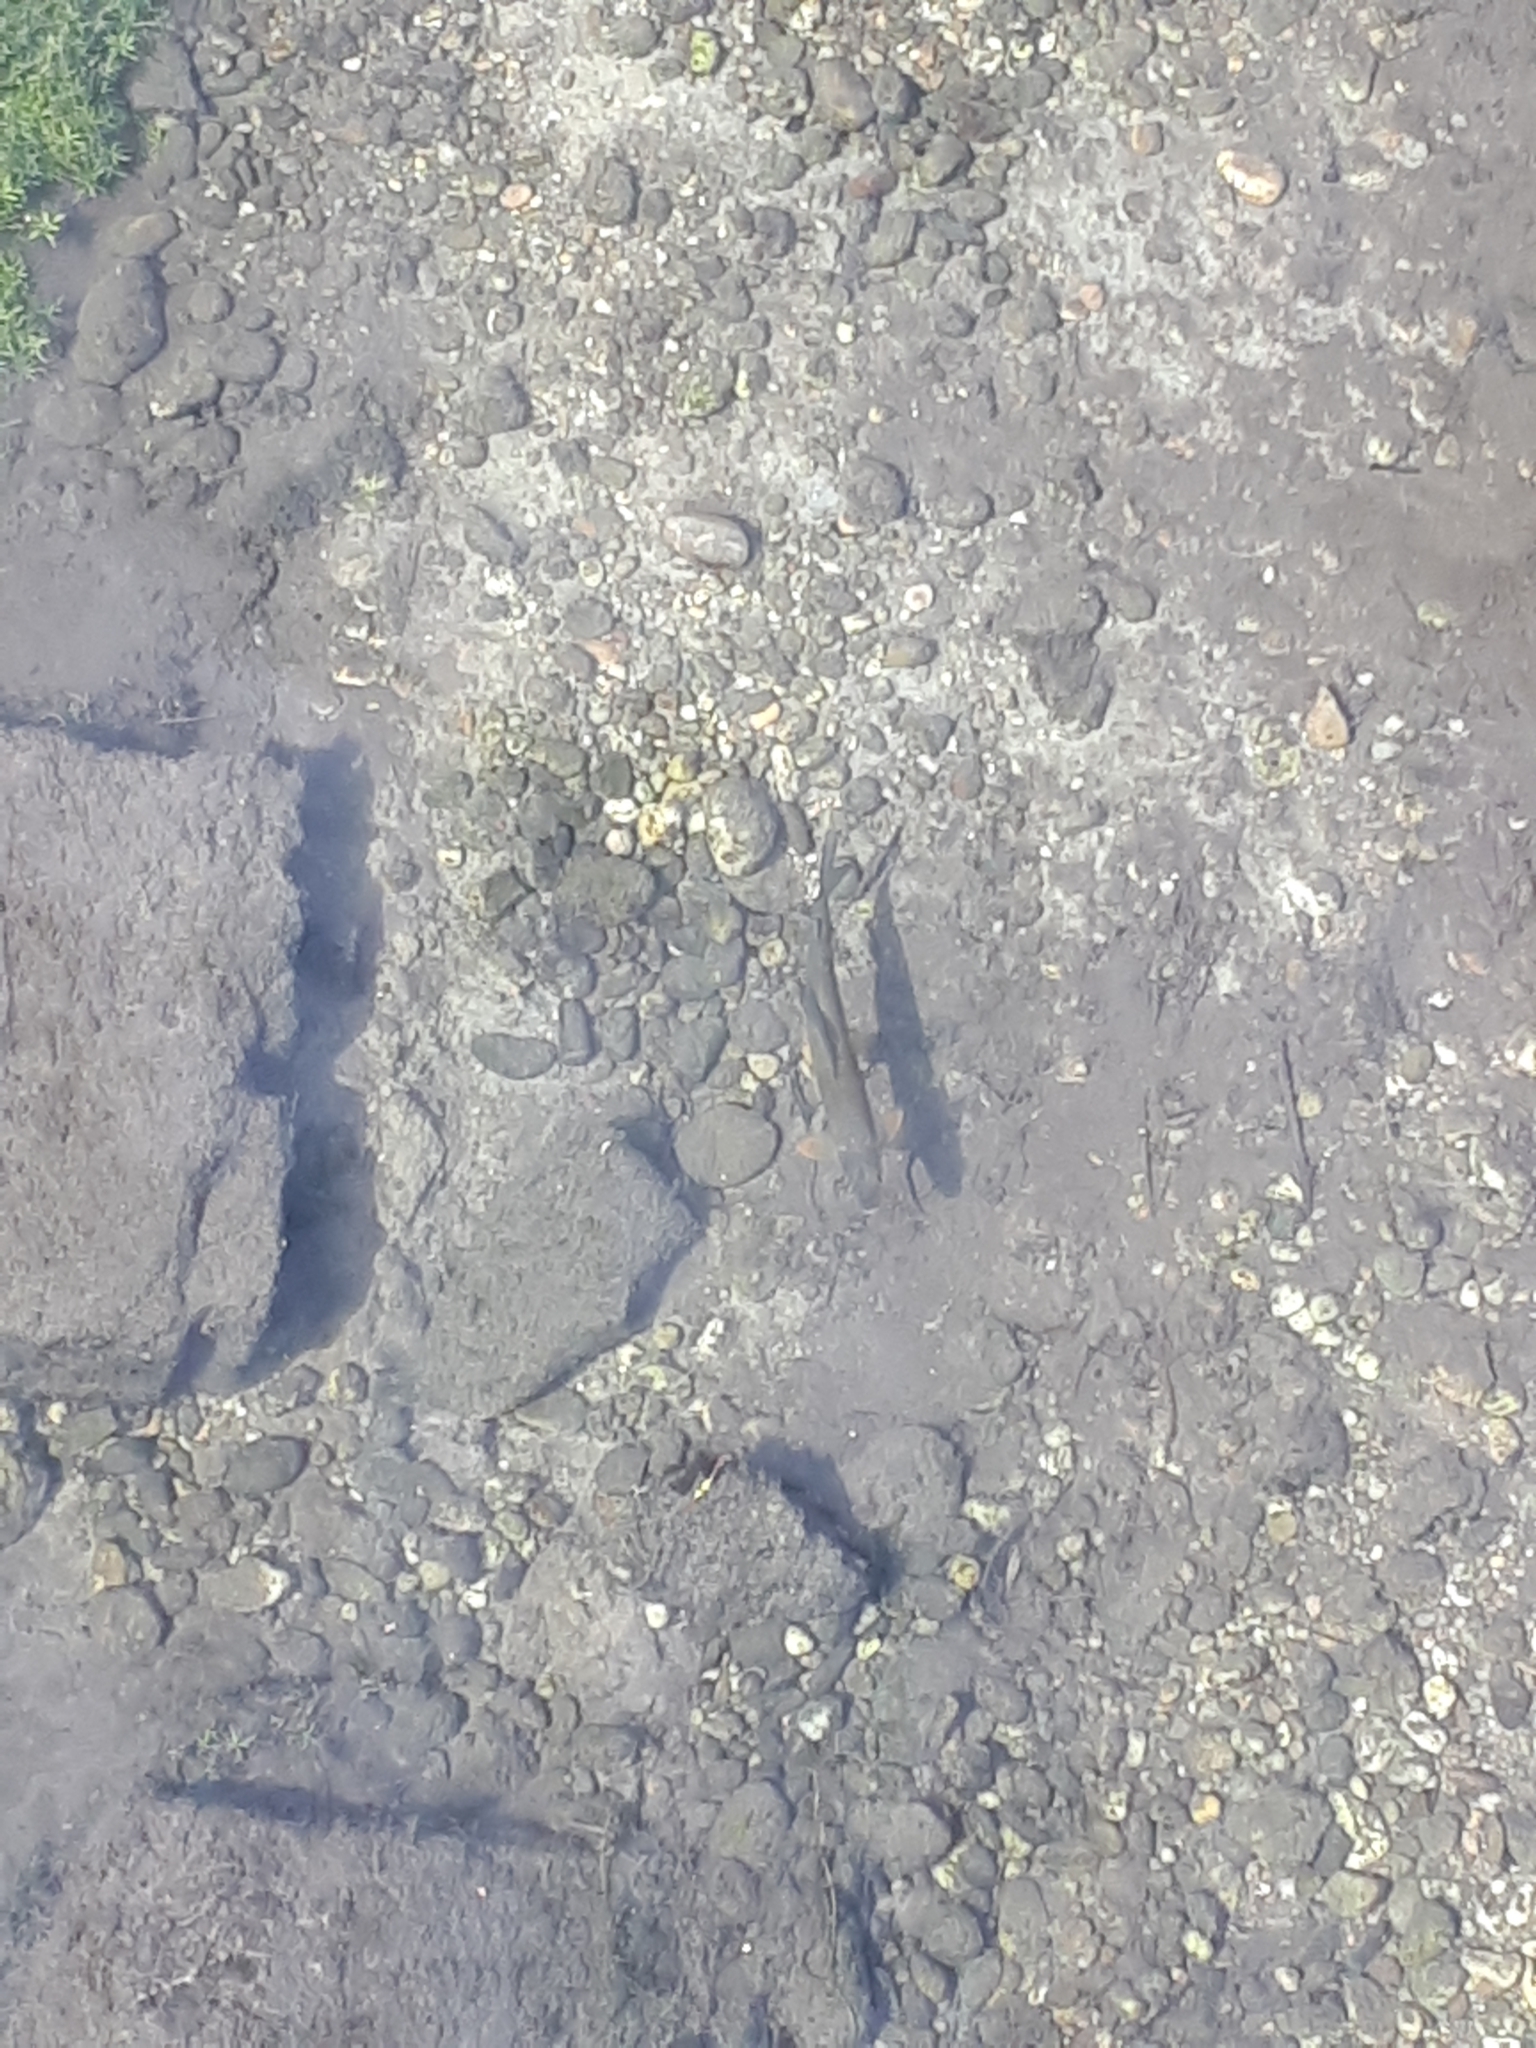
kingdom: Animalia
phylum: Chordata
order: Salmoniformes
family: Salmonidae
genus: Thymallus
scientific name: Thymallus thymallus
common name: Grayling
